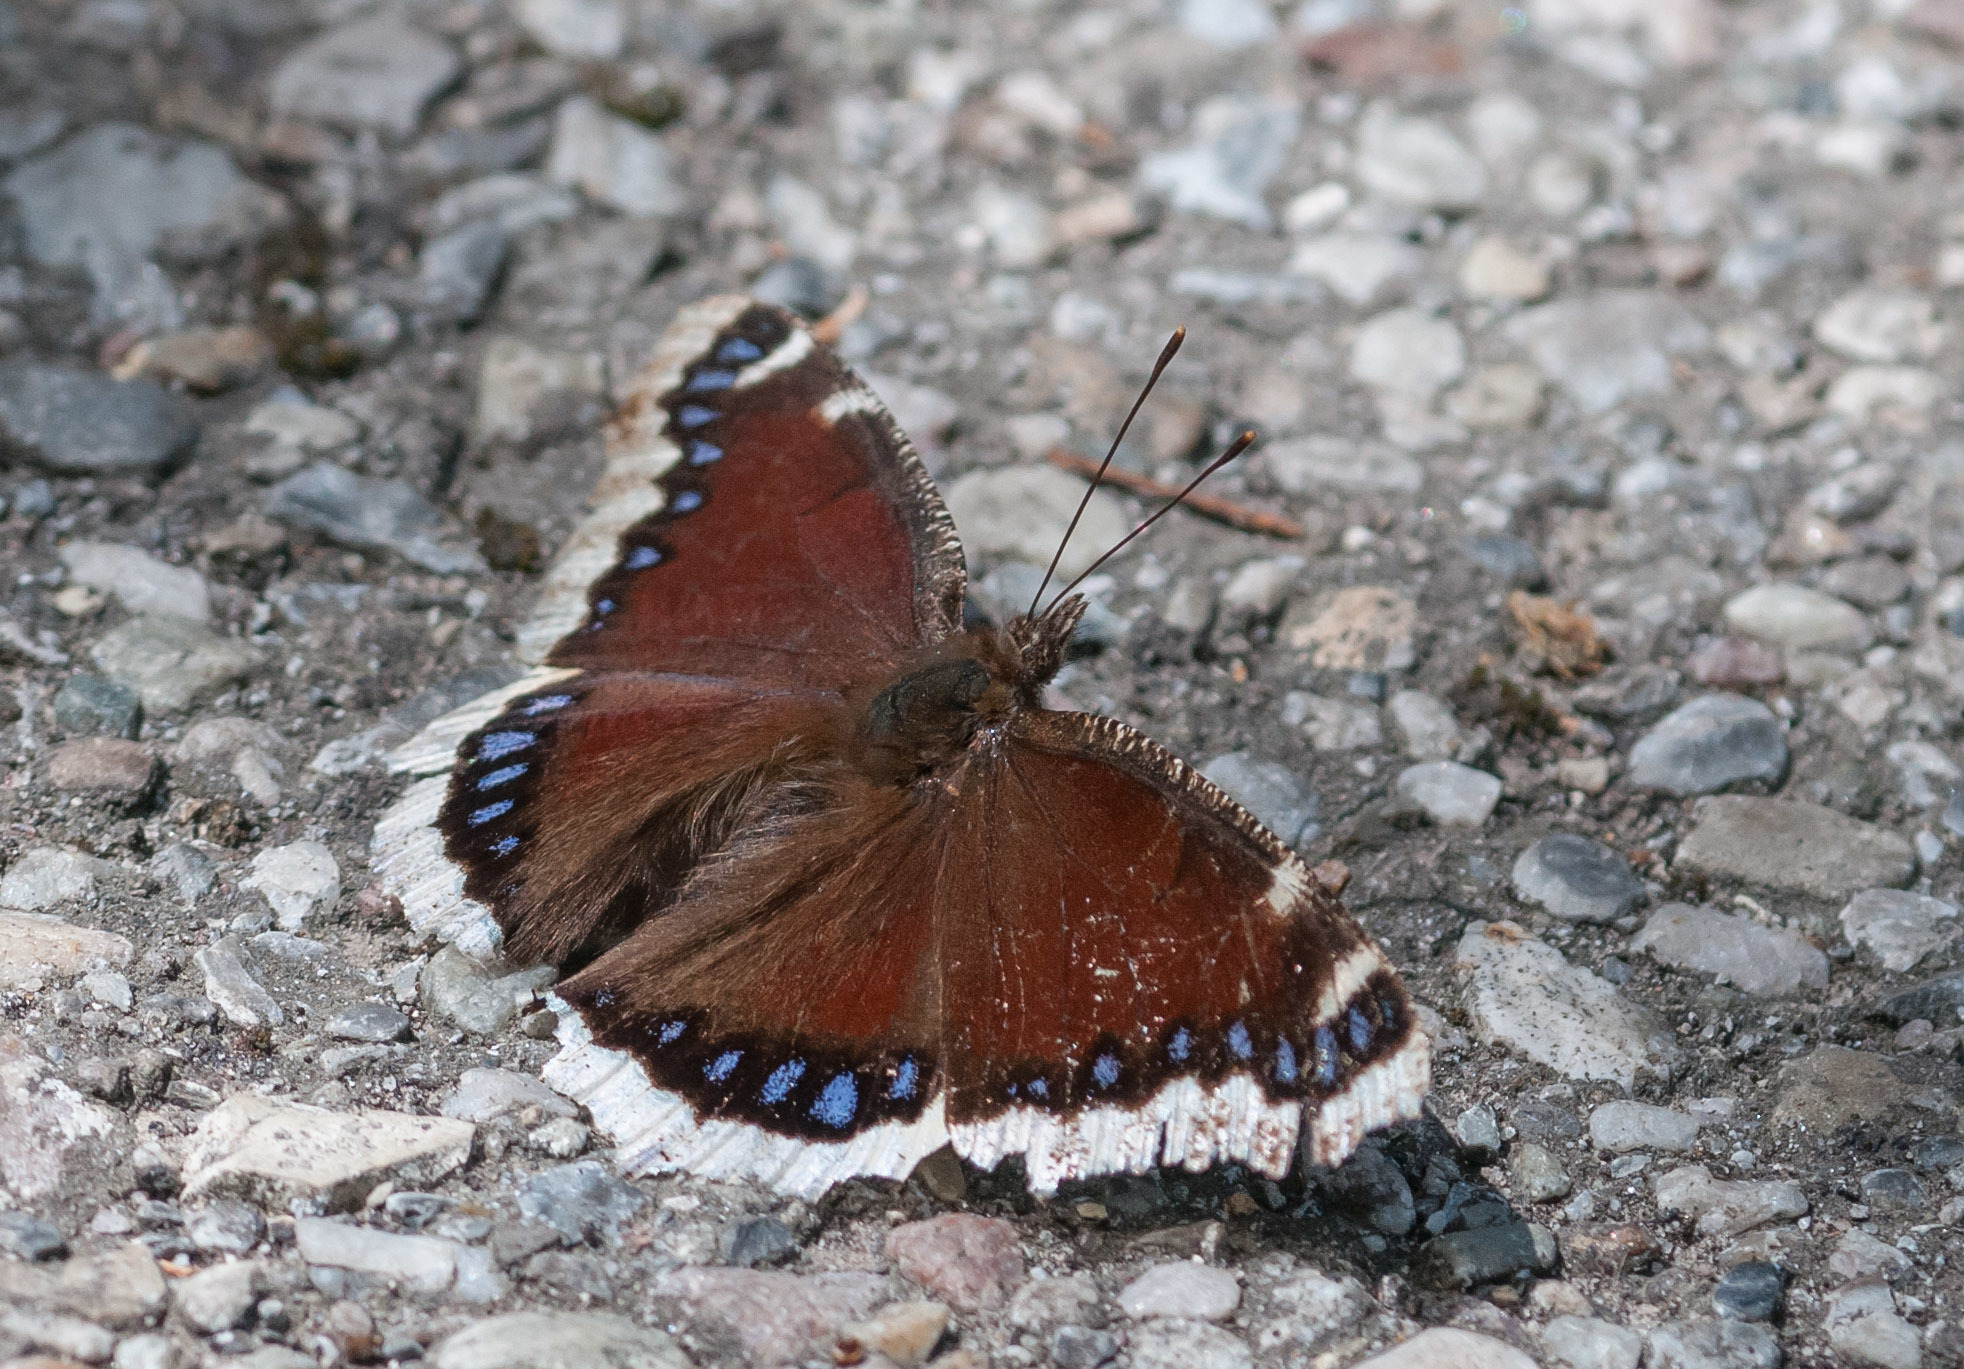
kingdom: Animalia
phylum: Arthropoda
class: Insecta
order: Lepidoptera
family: Nymphalidae
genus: Nymphalis
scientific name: Nymphalis antiopa
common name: Camberwell beauty
